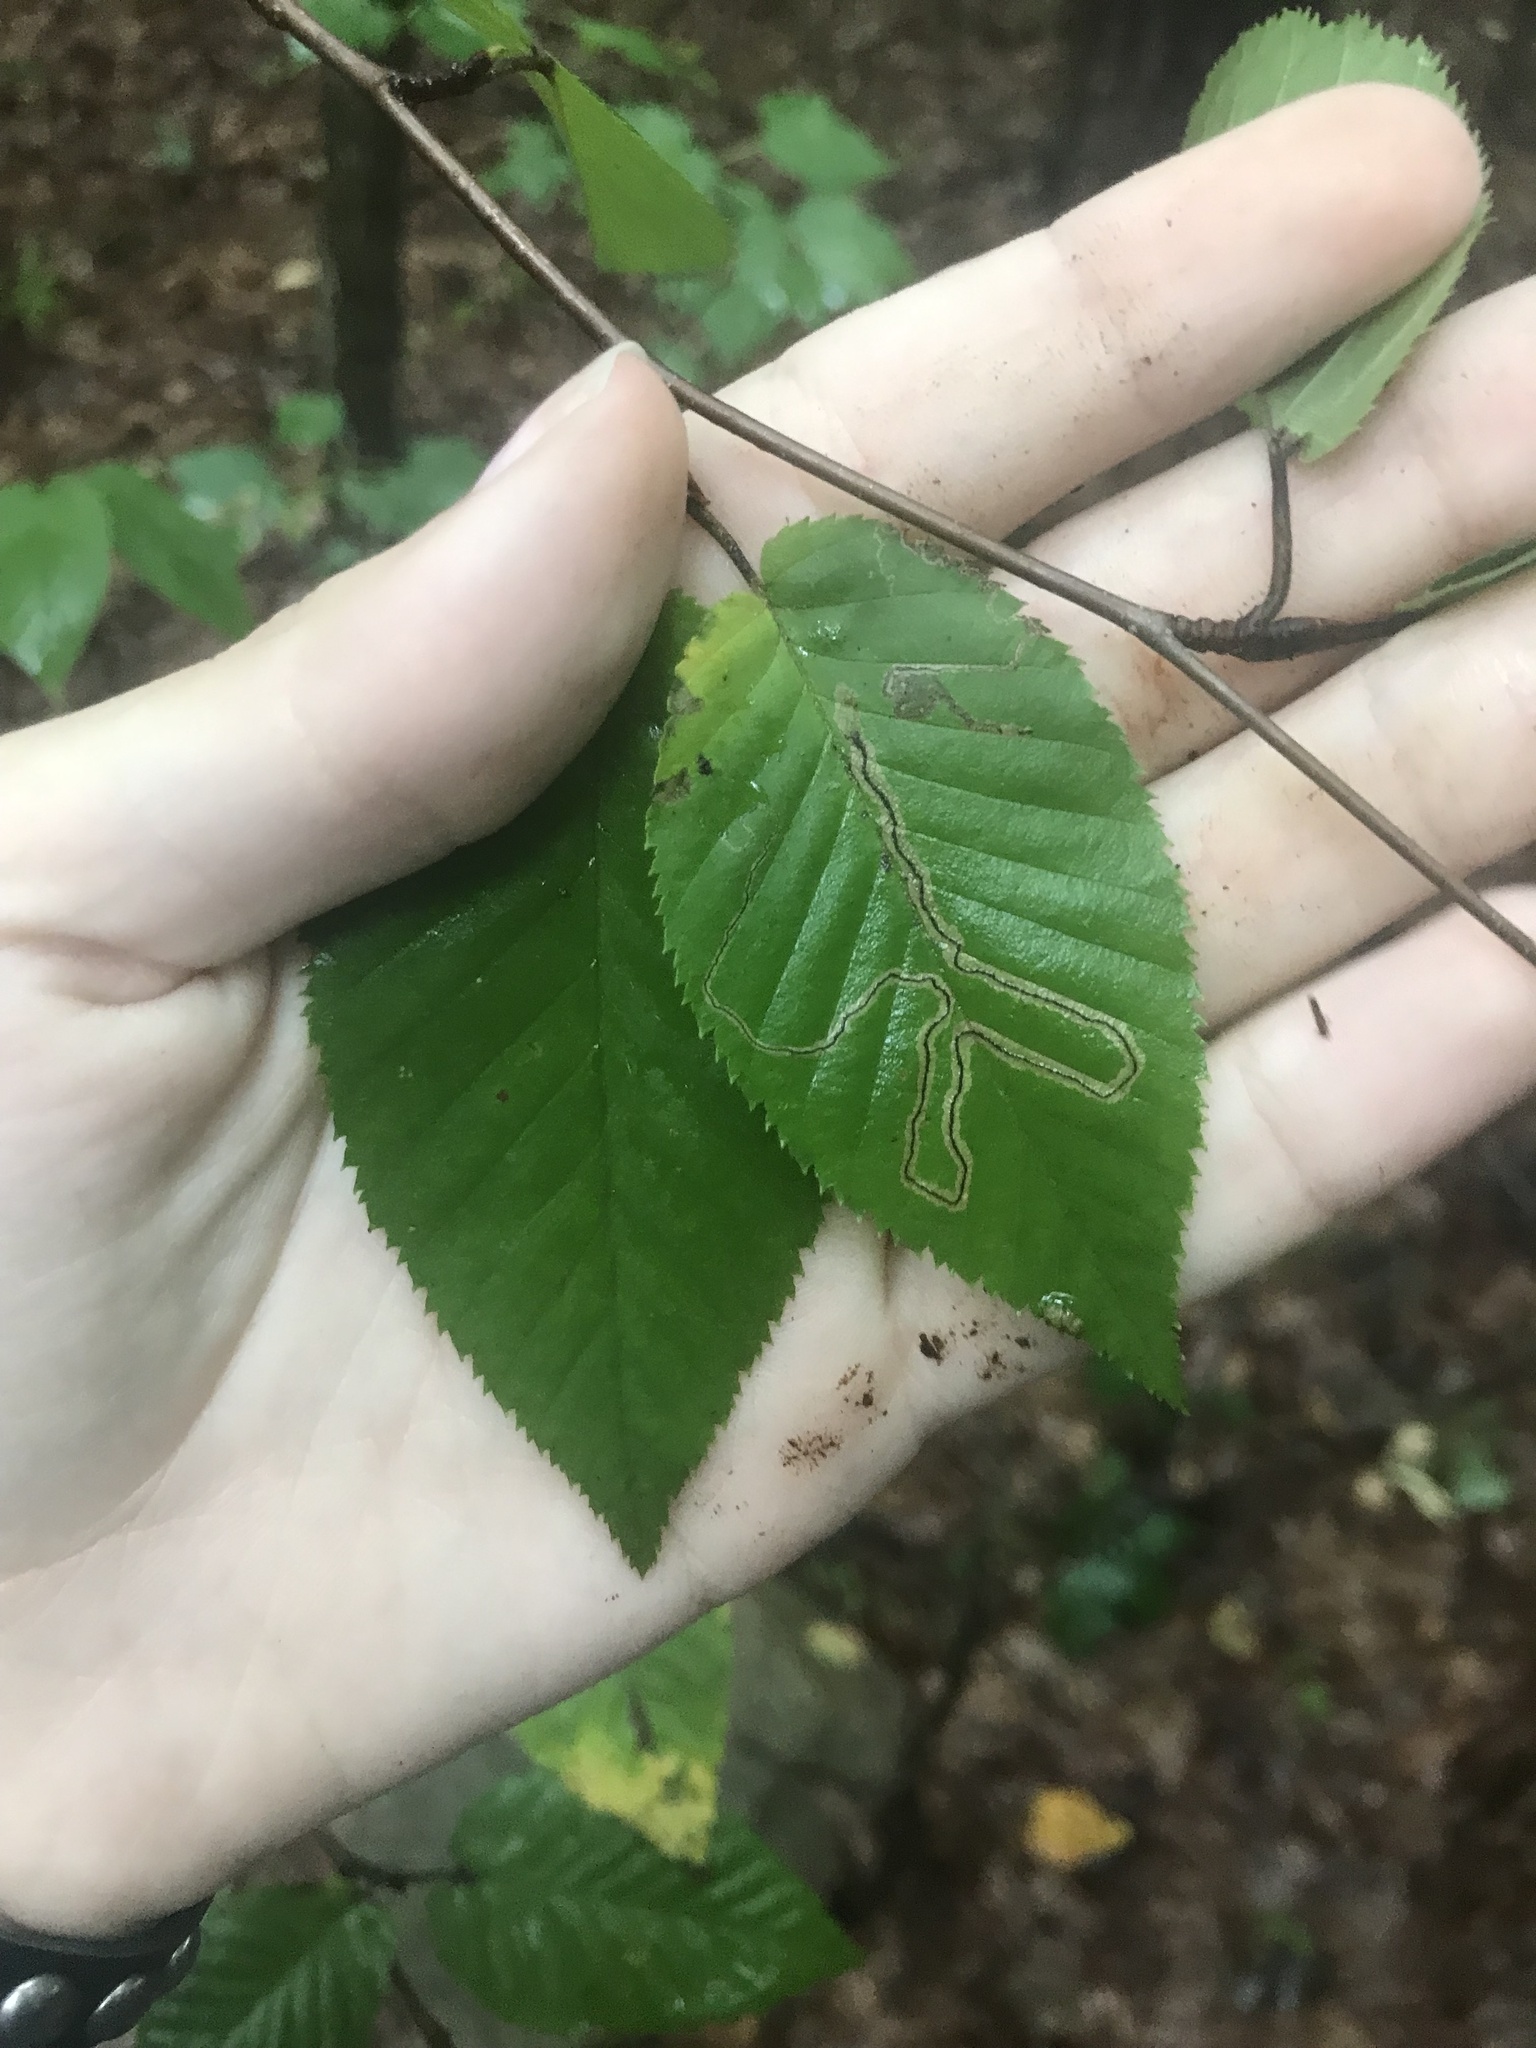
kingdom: Animalia
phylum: Arthropoda
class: Insecta
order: Lepidoptera
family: Nepticulidae
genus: Stigmella
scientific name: Stigmella
